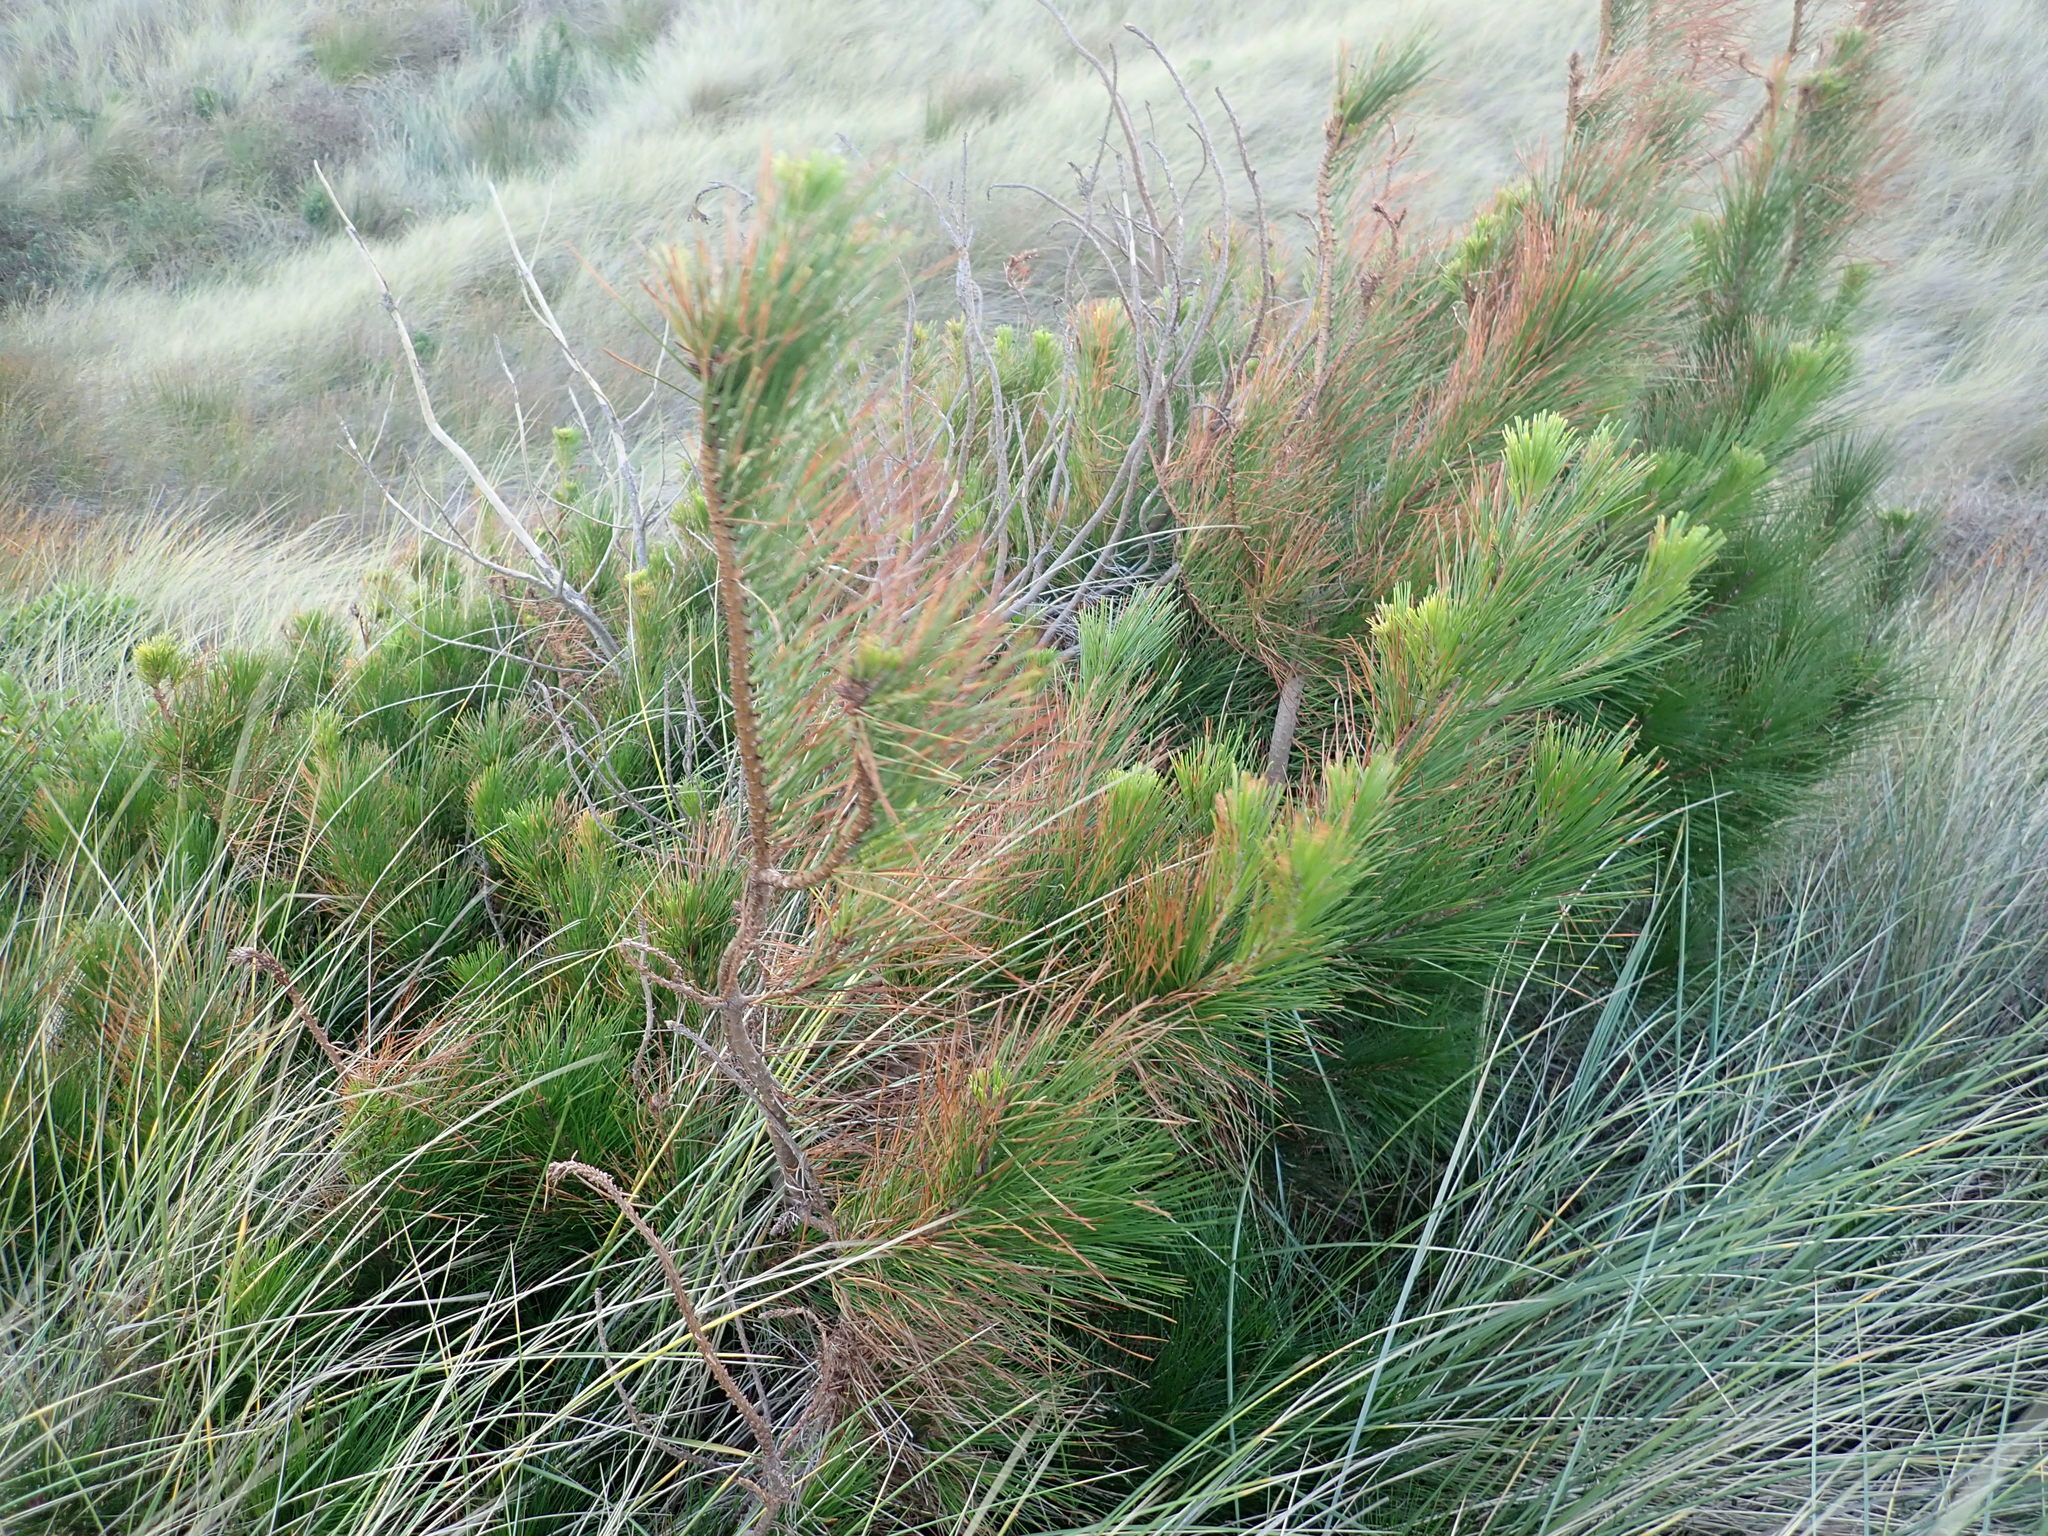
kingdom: Plantae
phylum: Tracheophyta
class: Pinopsida
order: Pinales
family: Pinaceae
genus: Pinus
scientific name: Pinus radiata
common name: Monterey pine
